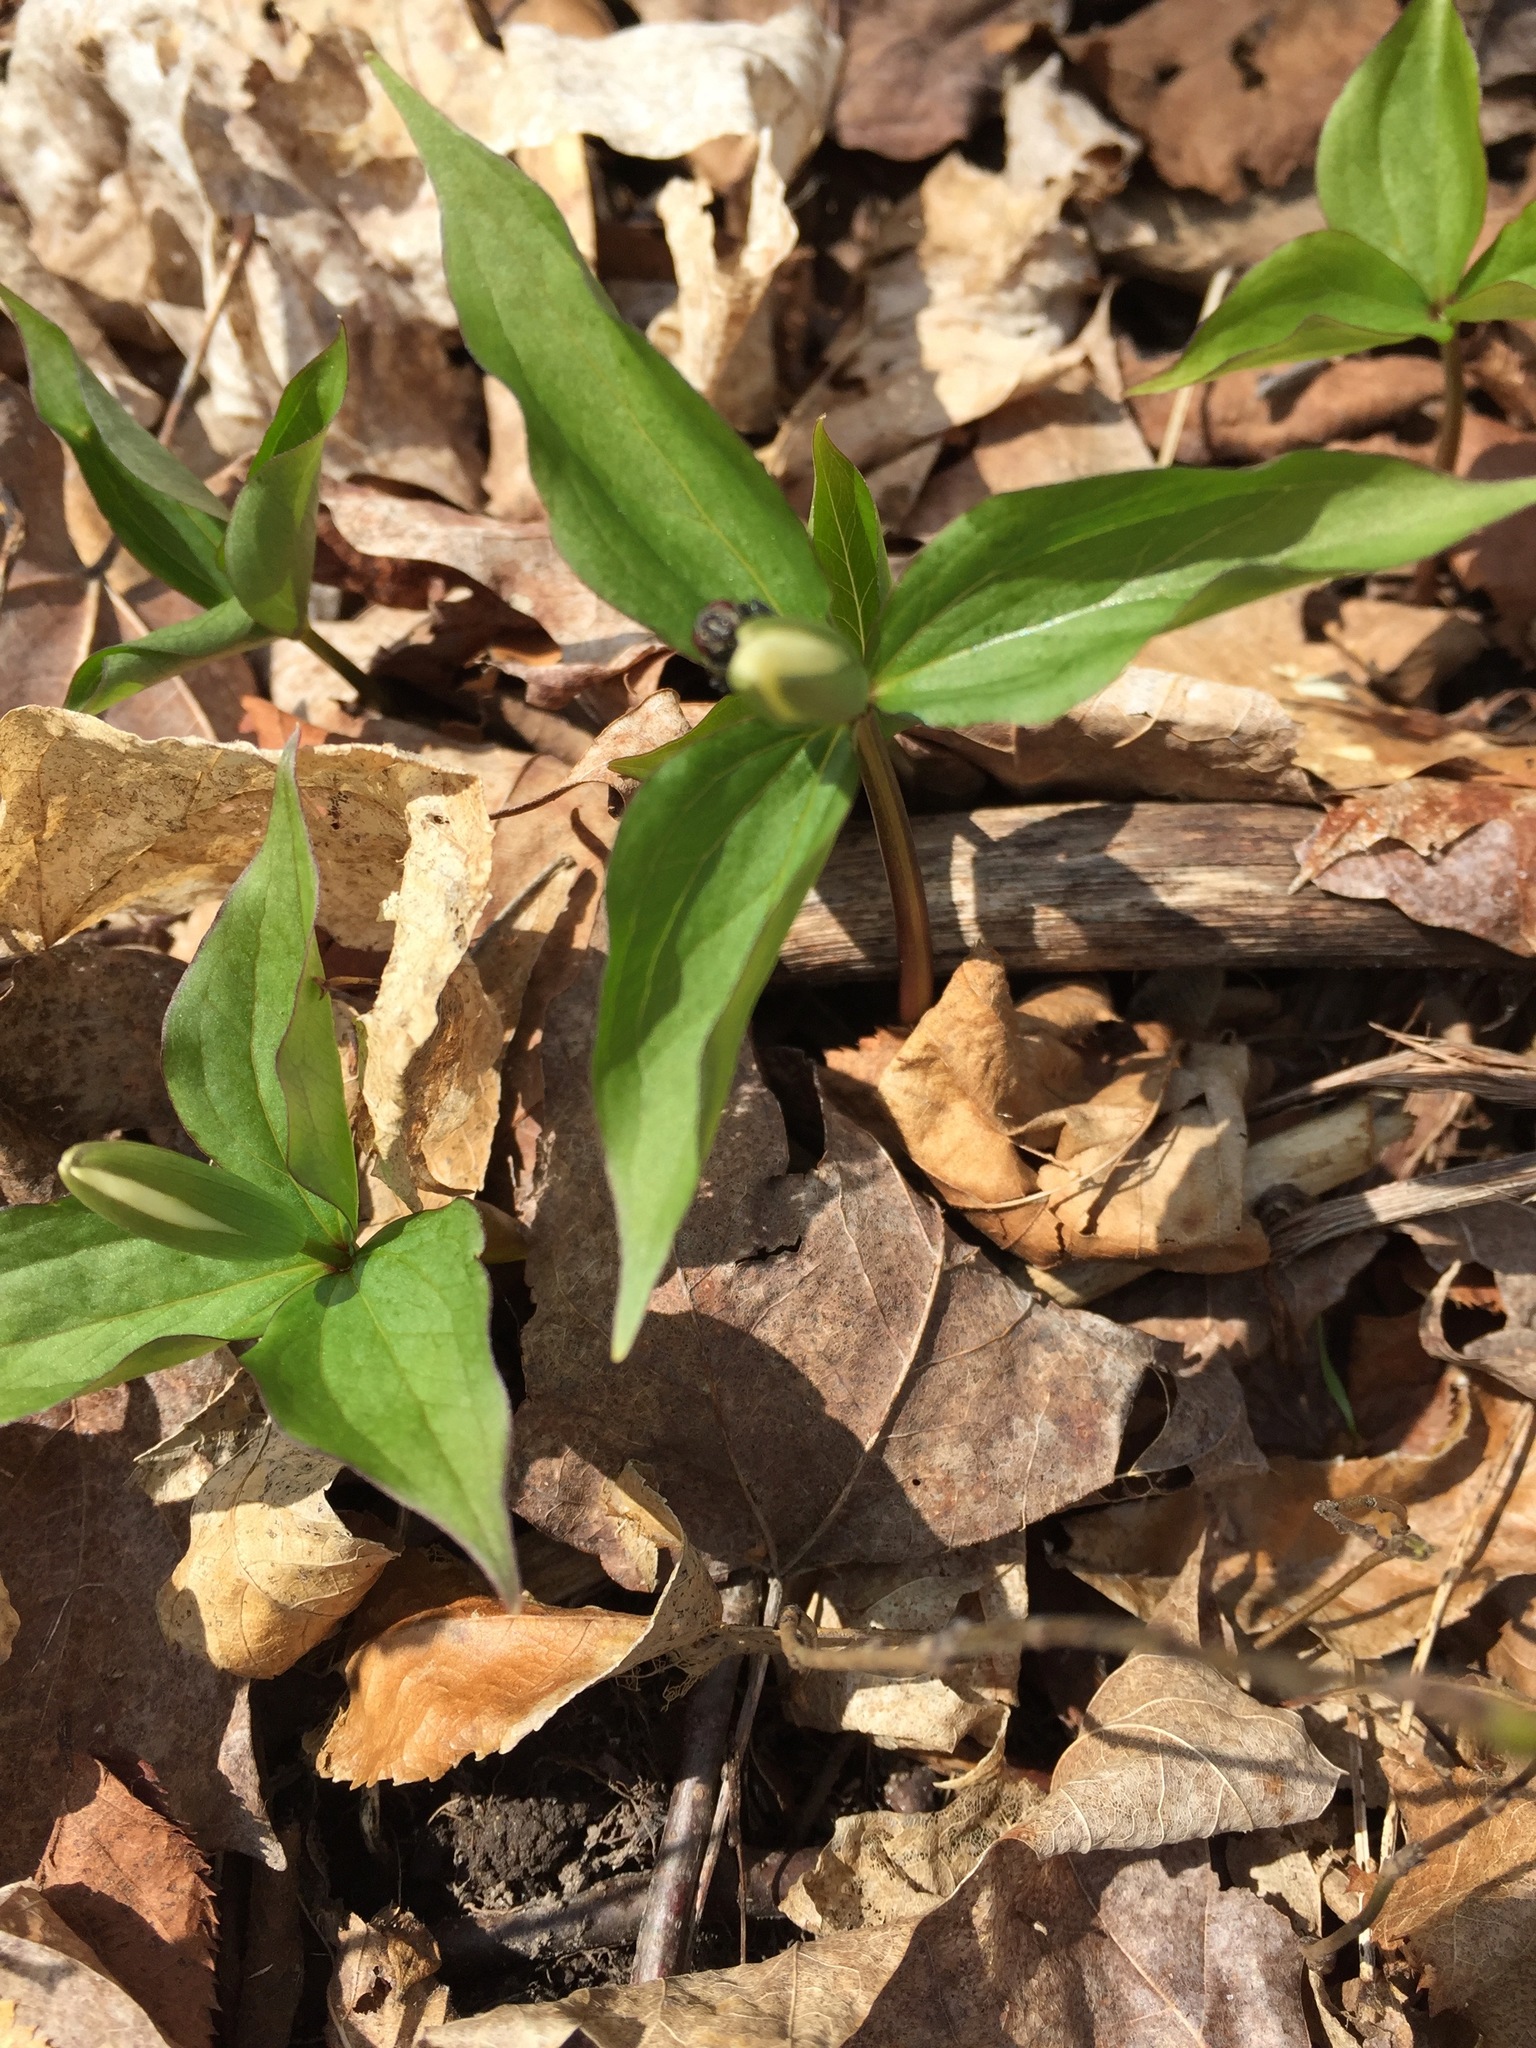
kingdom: Plantae
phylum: Tracheophyta
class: Liliopsida
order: Liliales
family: Melanthiaceae
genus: Trillium
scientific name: Trillium grandiflorum
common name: Great white trillium
